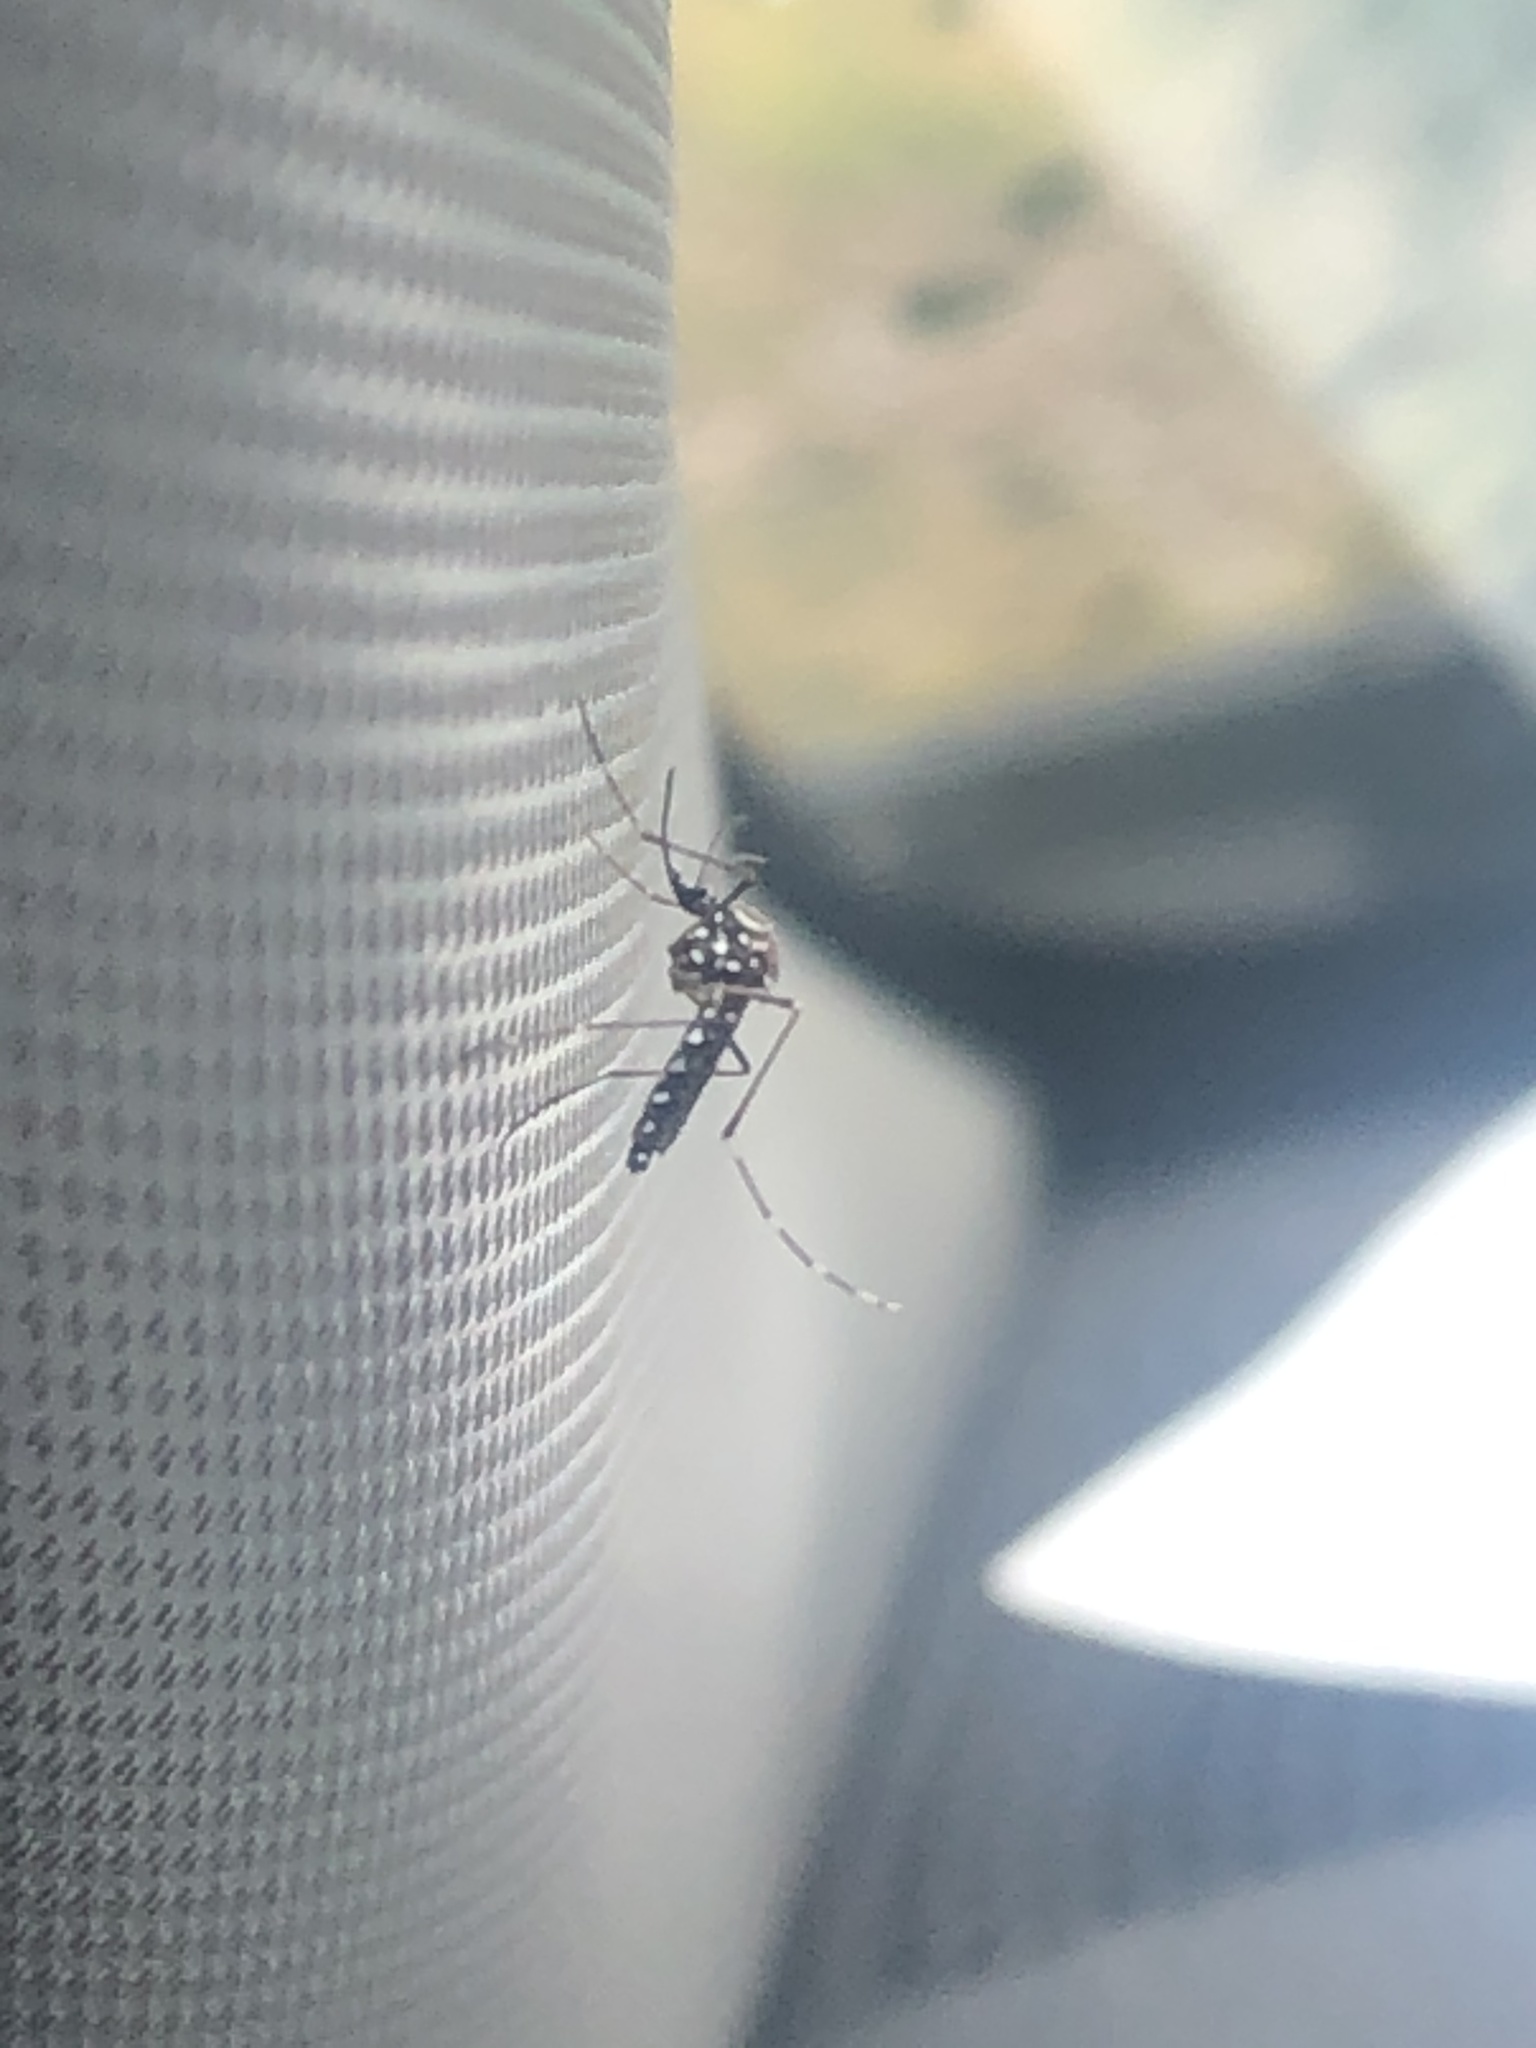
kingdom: Animalia
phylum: Arthropoda
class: Insecta
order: Diptera
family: Culicidae
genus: Aedes
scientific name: Aedes aegypti
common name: Yellow fever mosquito
